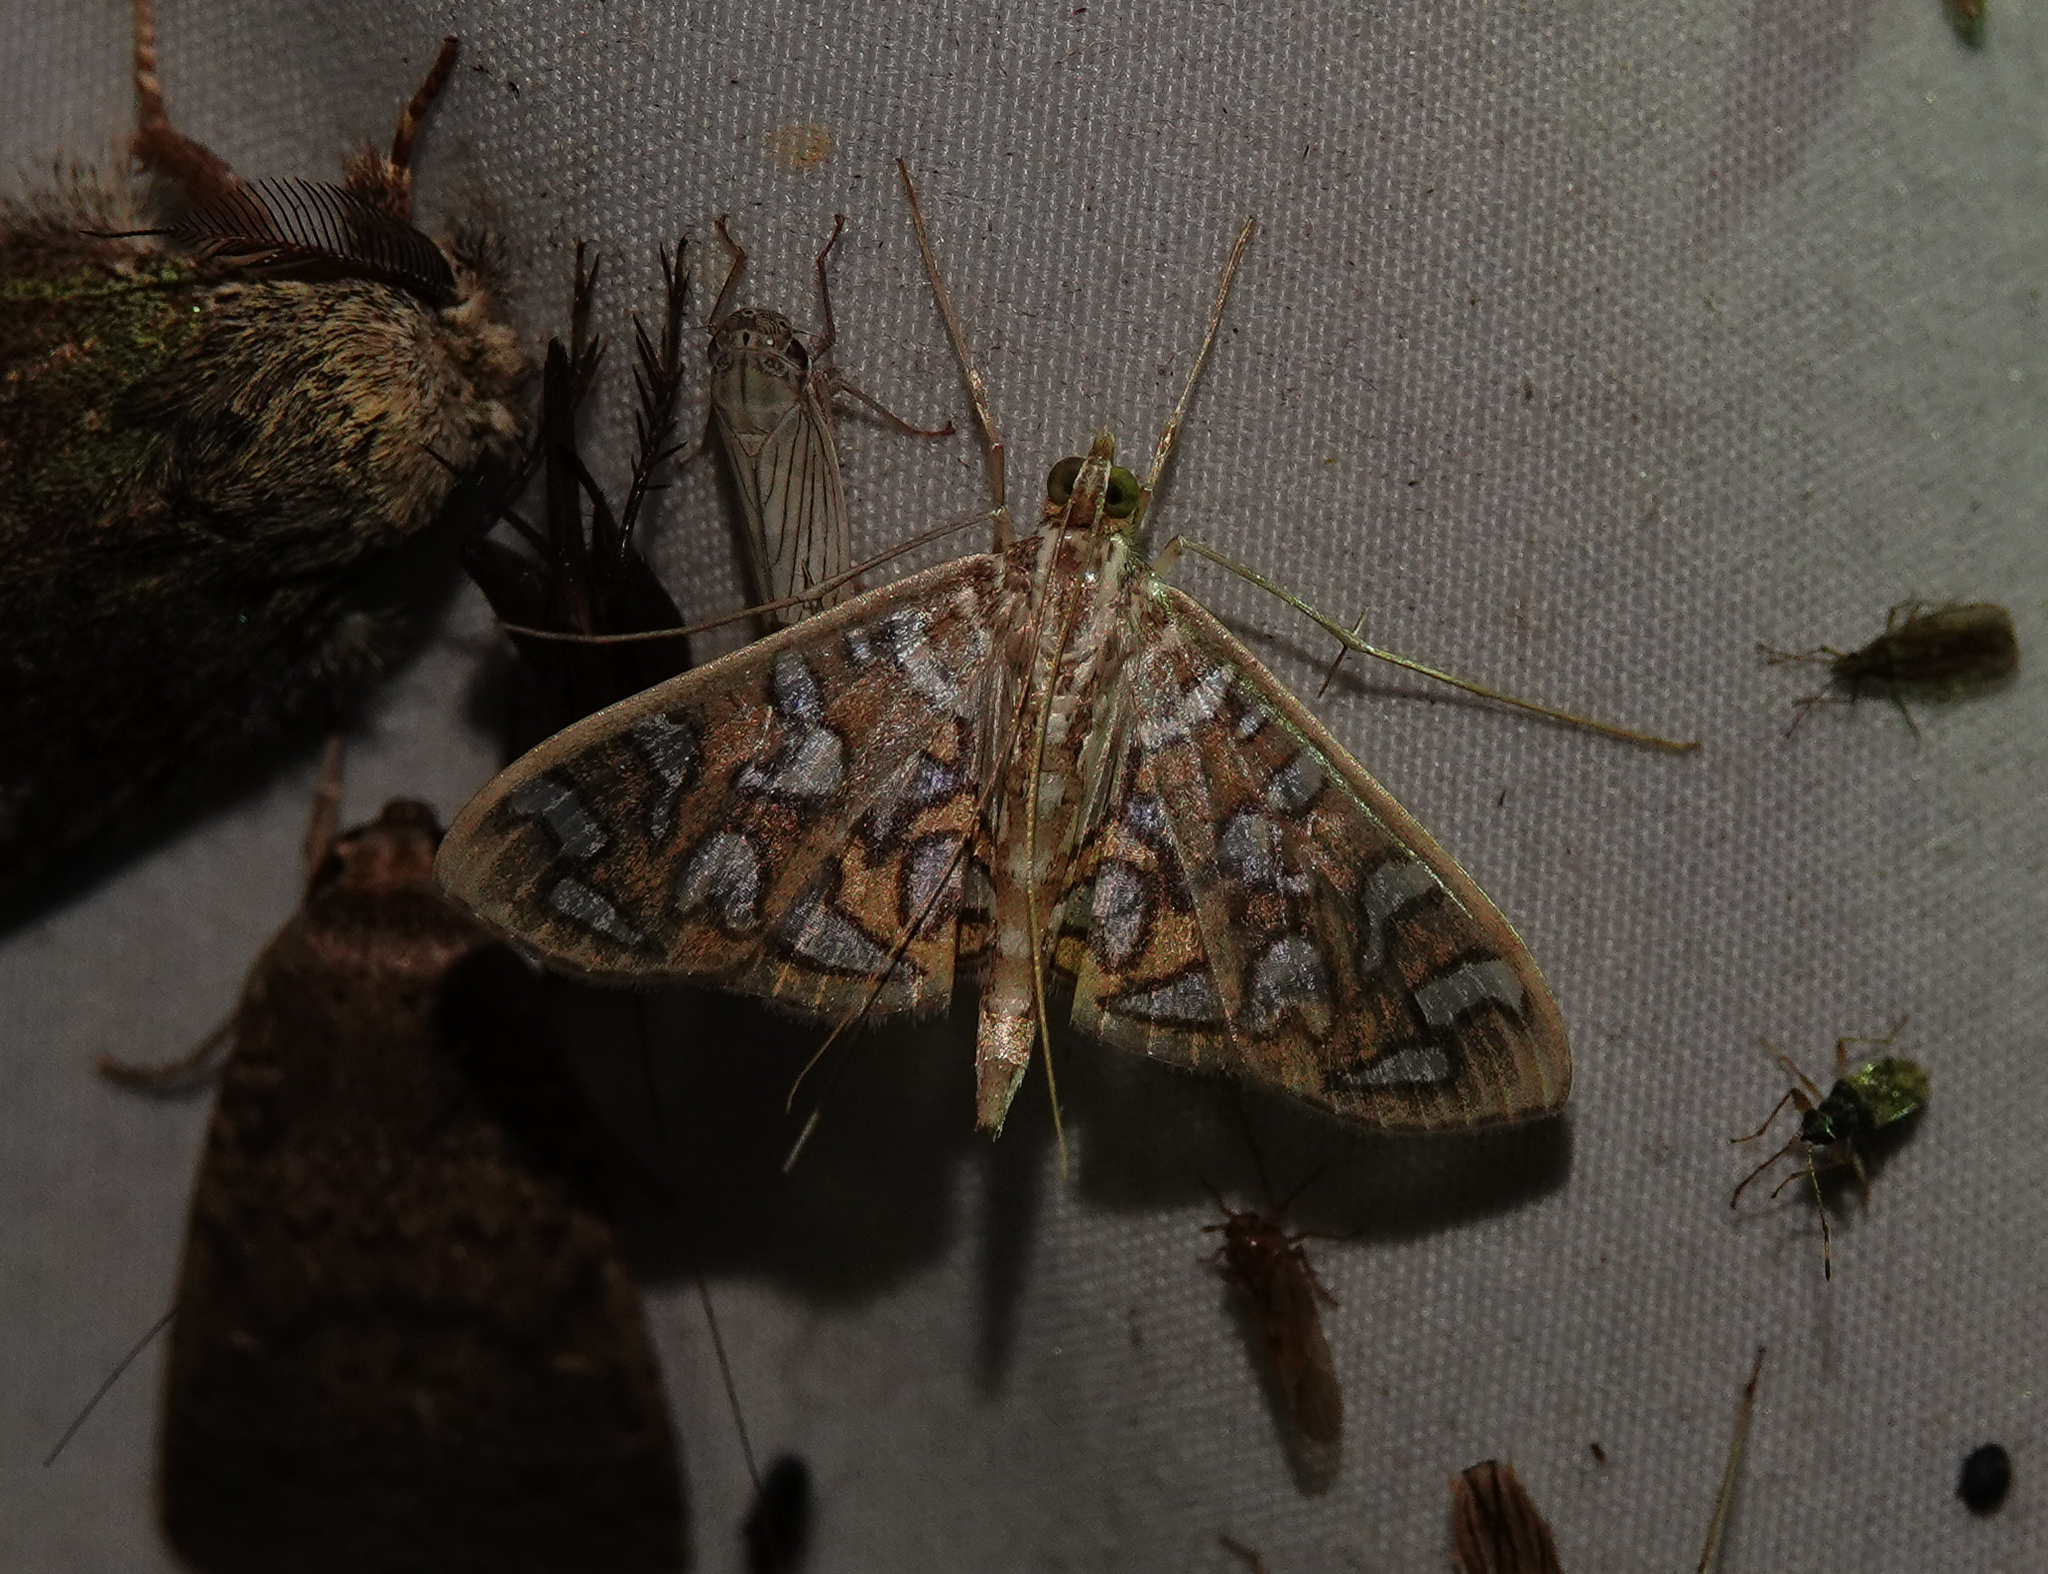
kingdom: Animalia
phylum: Arthropoda
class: Insecta
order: Lepidoptera
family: Crambidae
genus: Nausinoe
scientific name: Nausinoe perspectata
